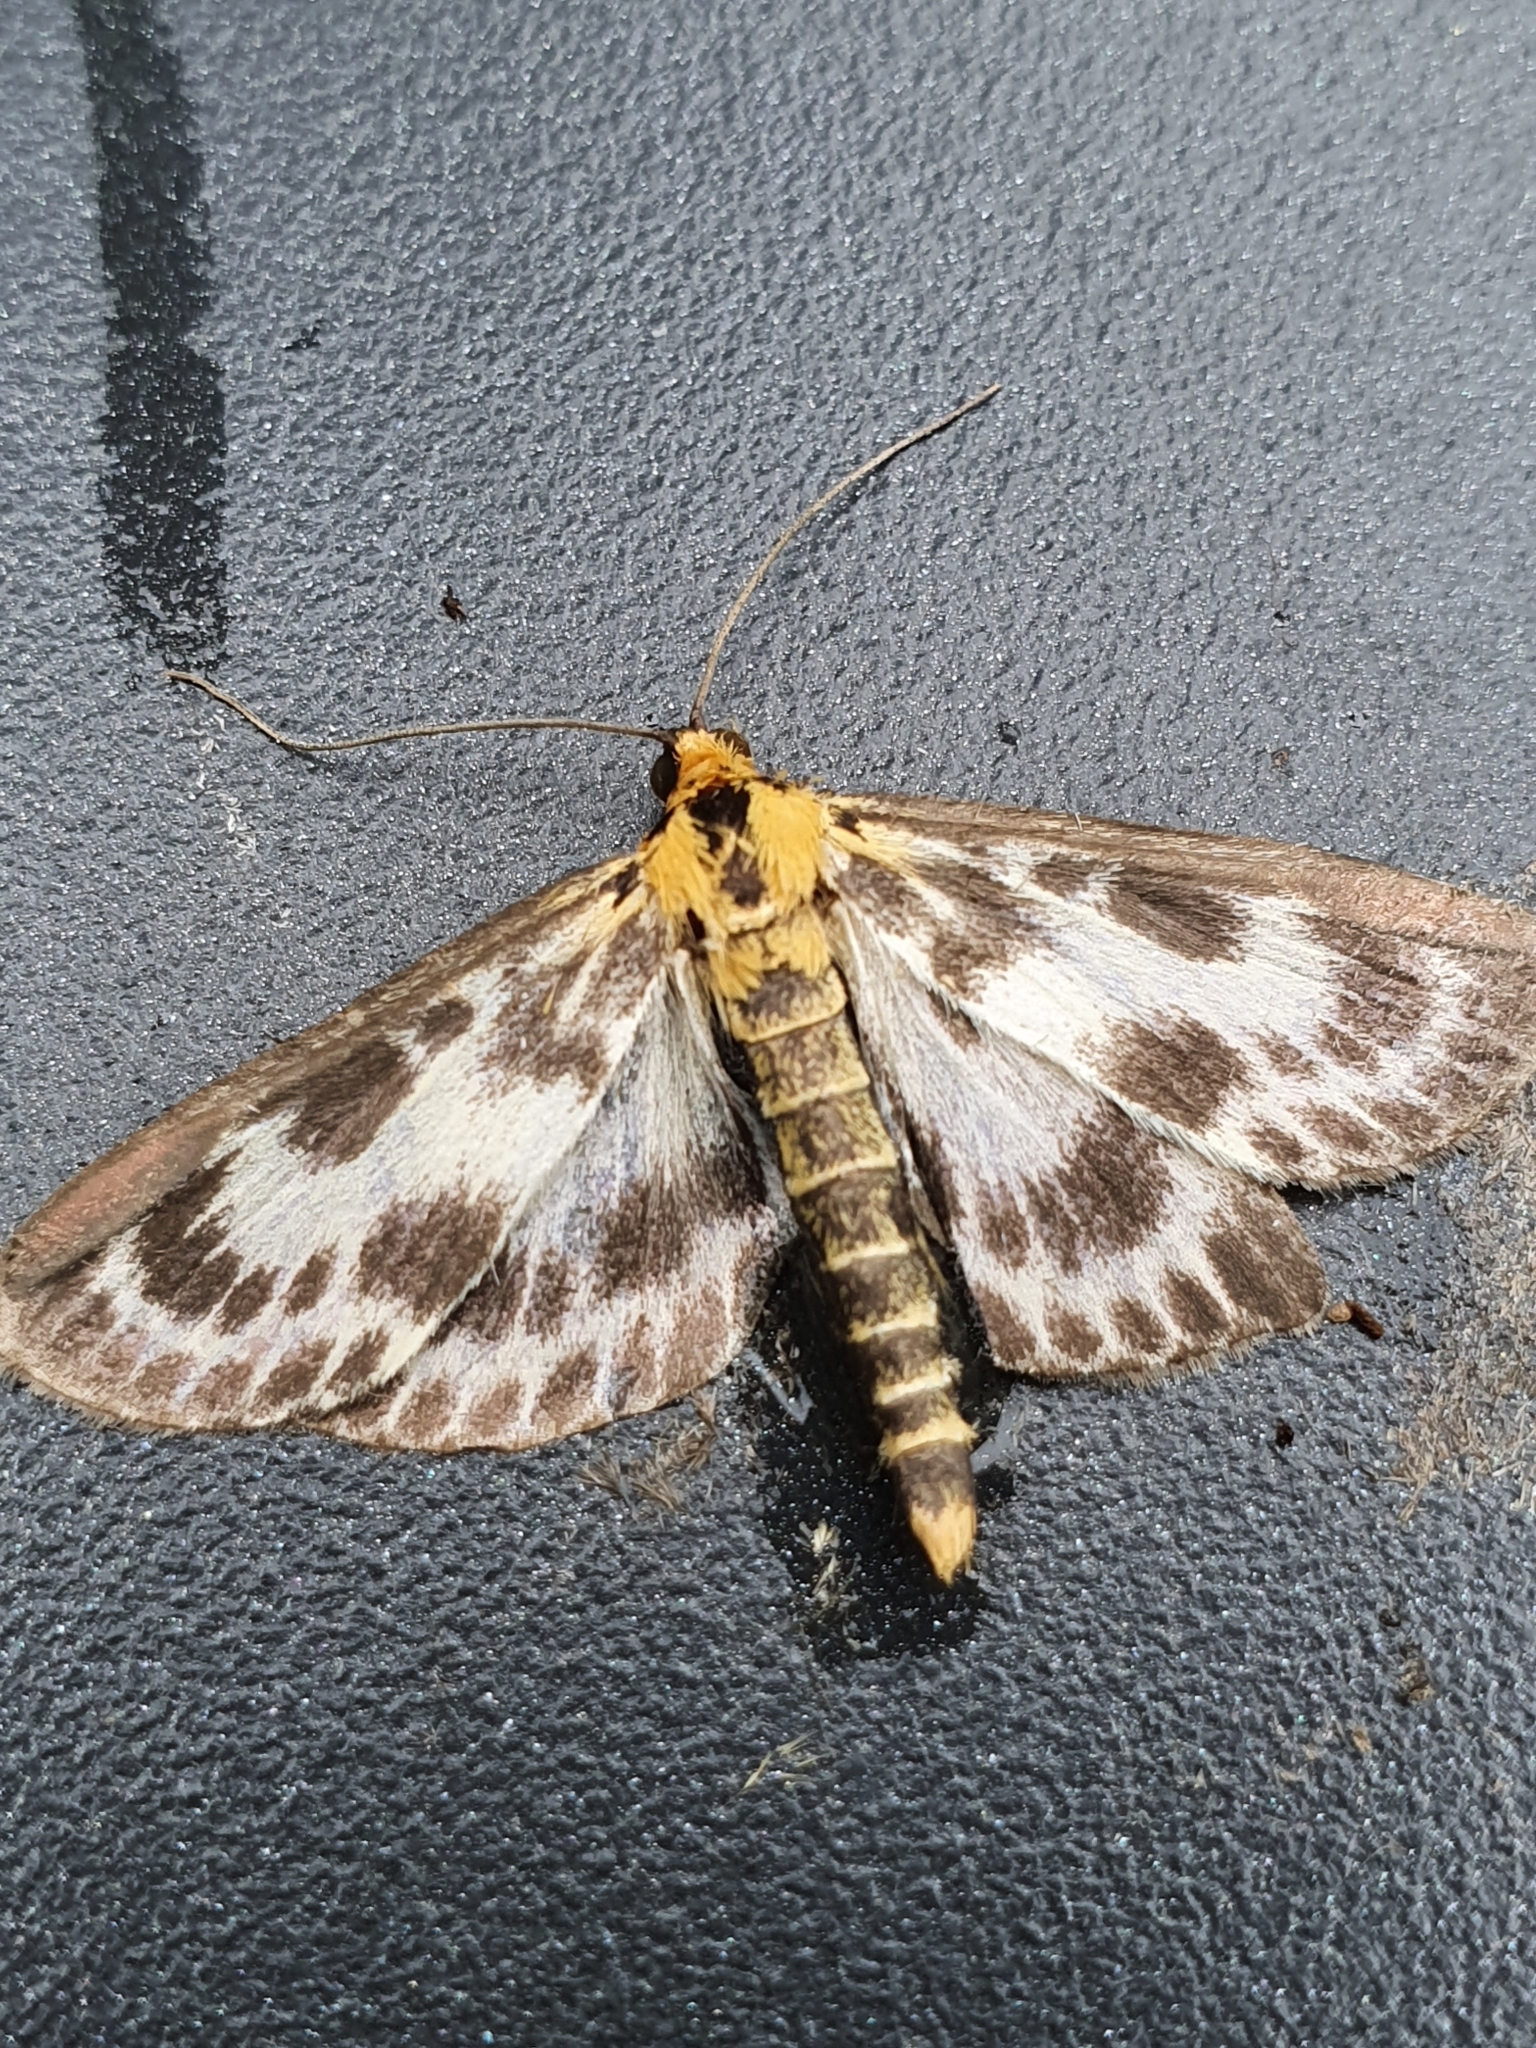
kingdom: Animalia
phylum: Arthropoda
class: Insecta
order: Lepidoptera
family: Crambidae
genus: Anania
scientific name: Anania hortulata
